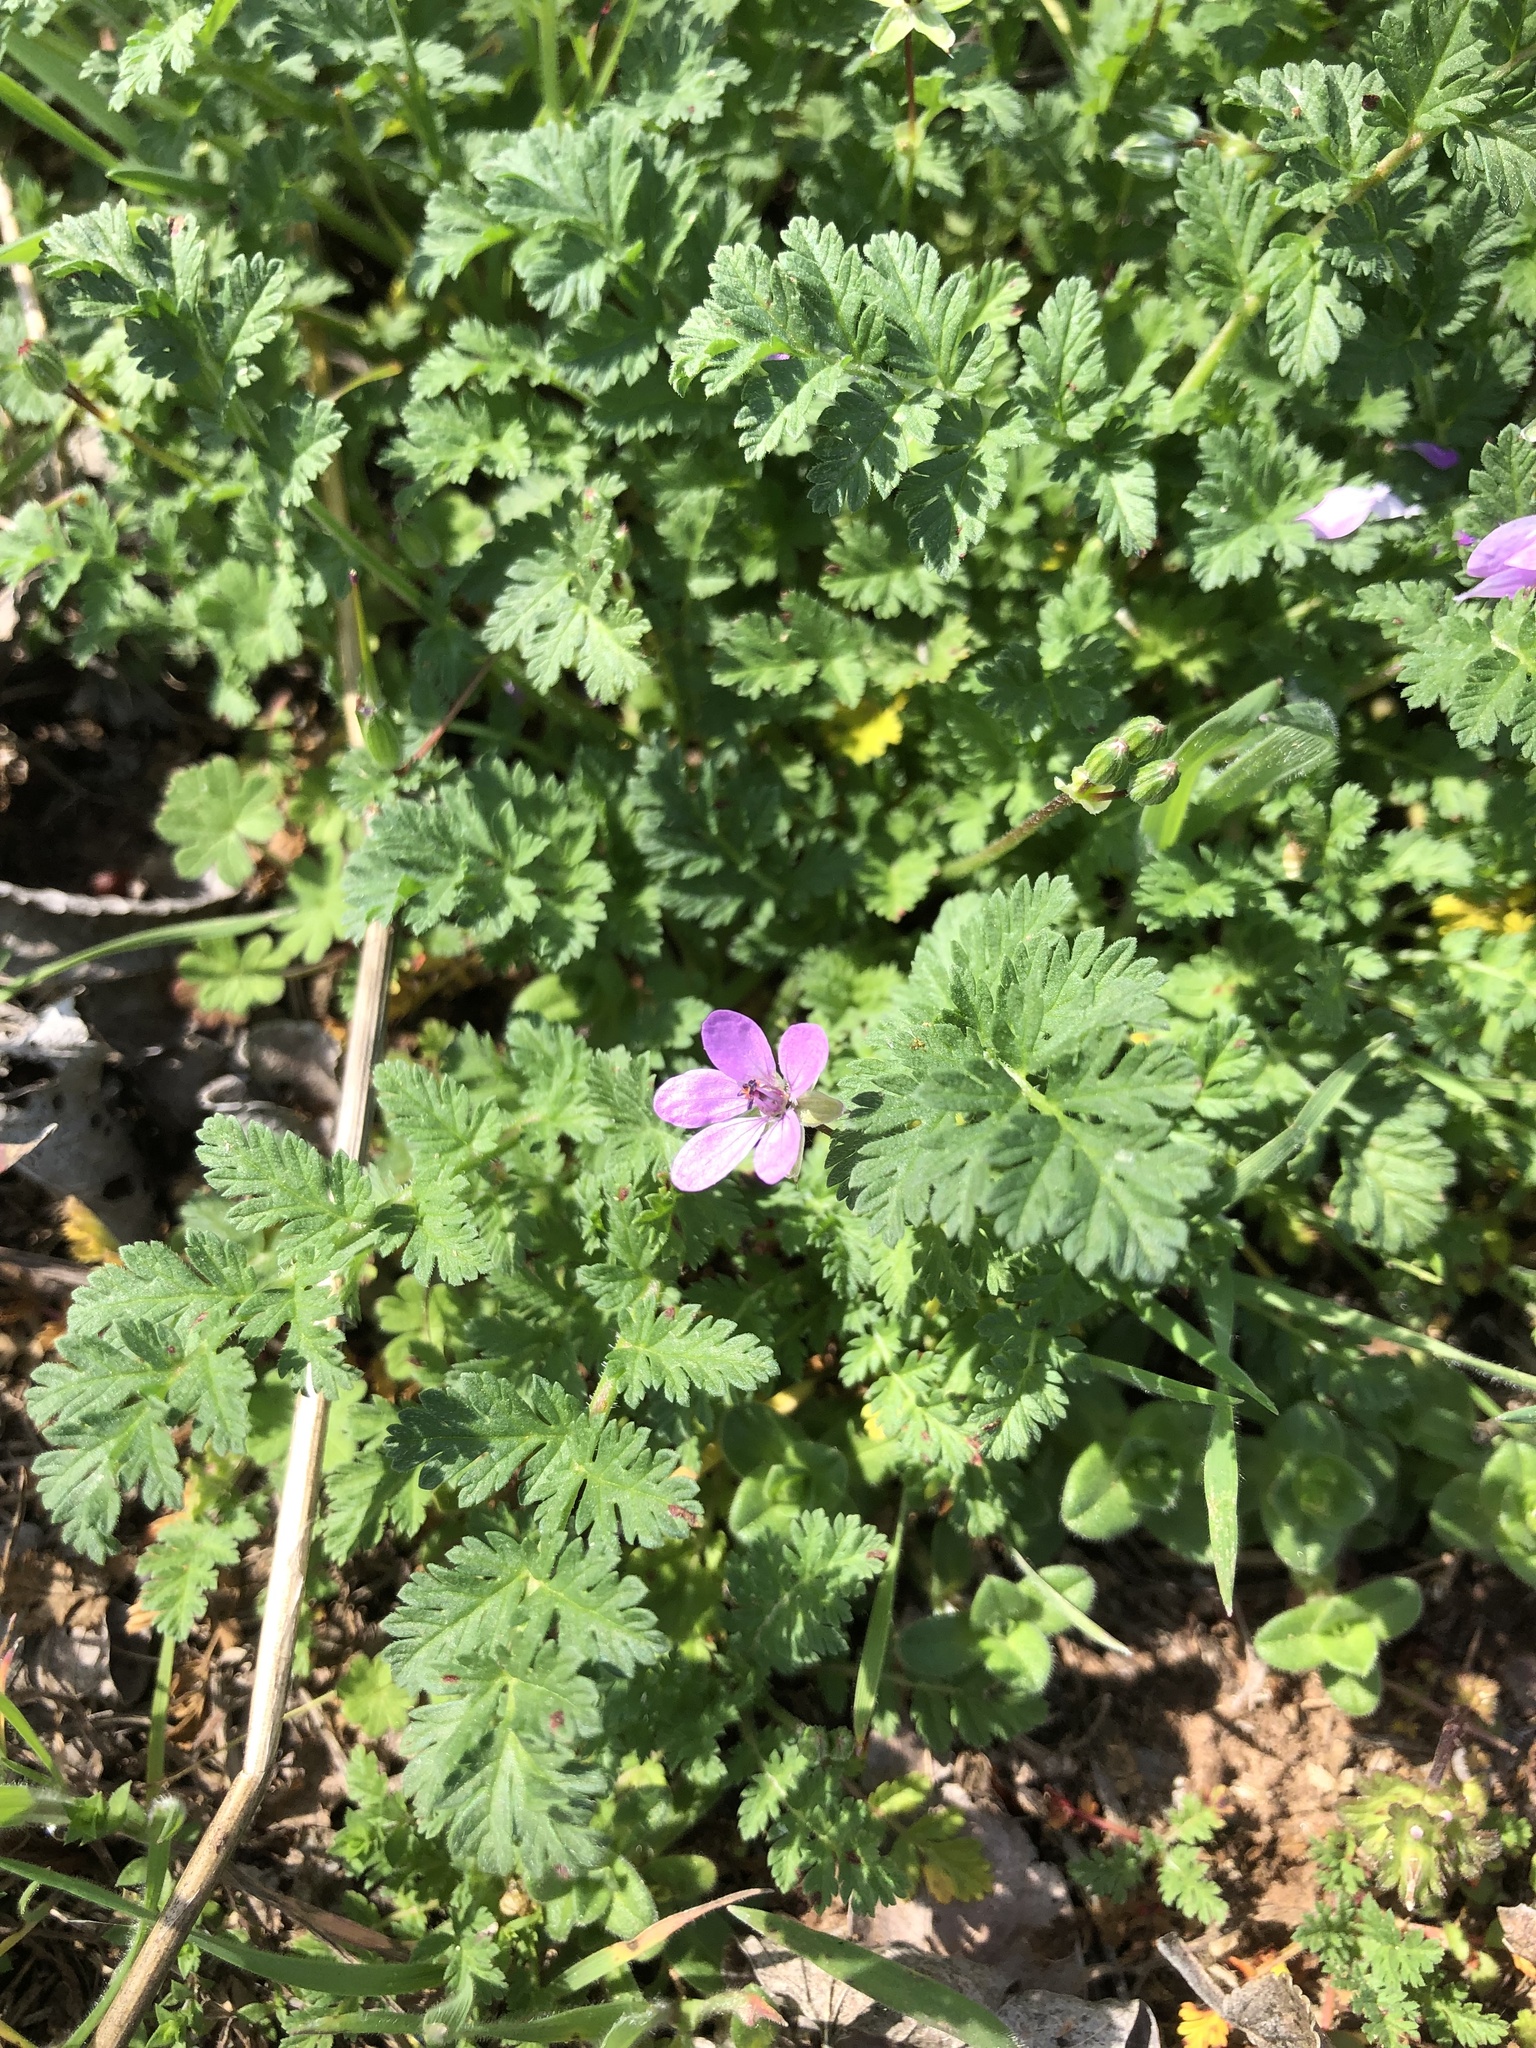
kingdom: Plantae
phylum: Tracheophyta
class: Magnoliopsida
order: Geraniales
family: Geraniaceae
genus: Erodium
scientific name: Erodium cicutarium
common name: Common stork's-bill
